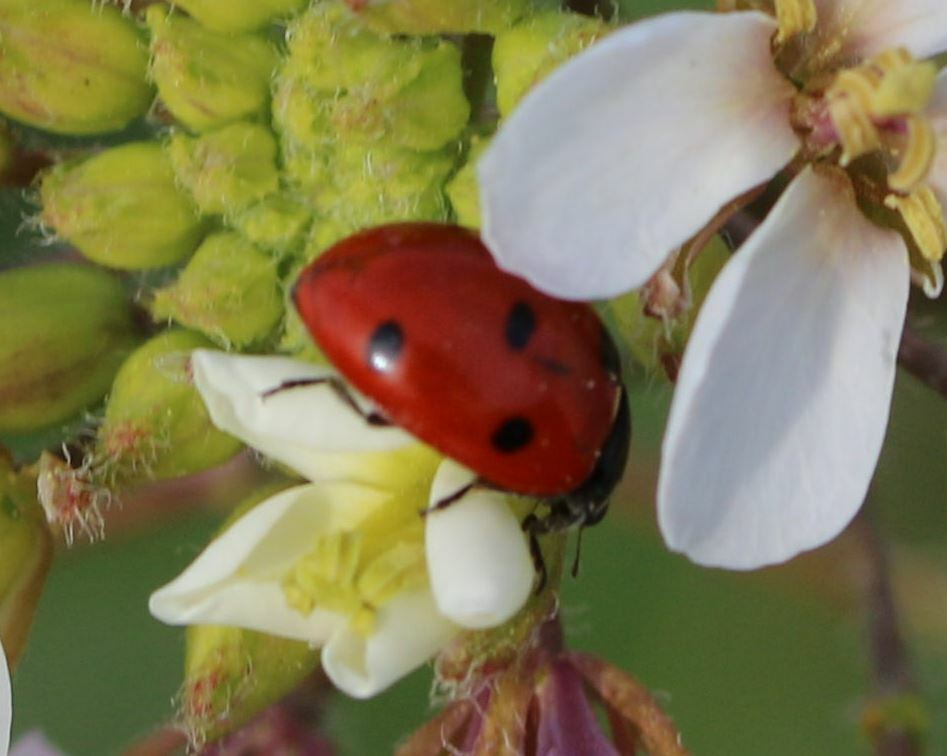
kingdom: Animalia
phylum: Arthropoda
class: Insecta
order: Coleoptera
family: Coccinellidae
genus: Coccinella
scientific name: Coccinella septempunctata
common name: Sevenspotted lady beetle
